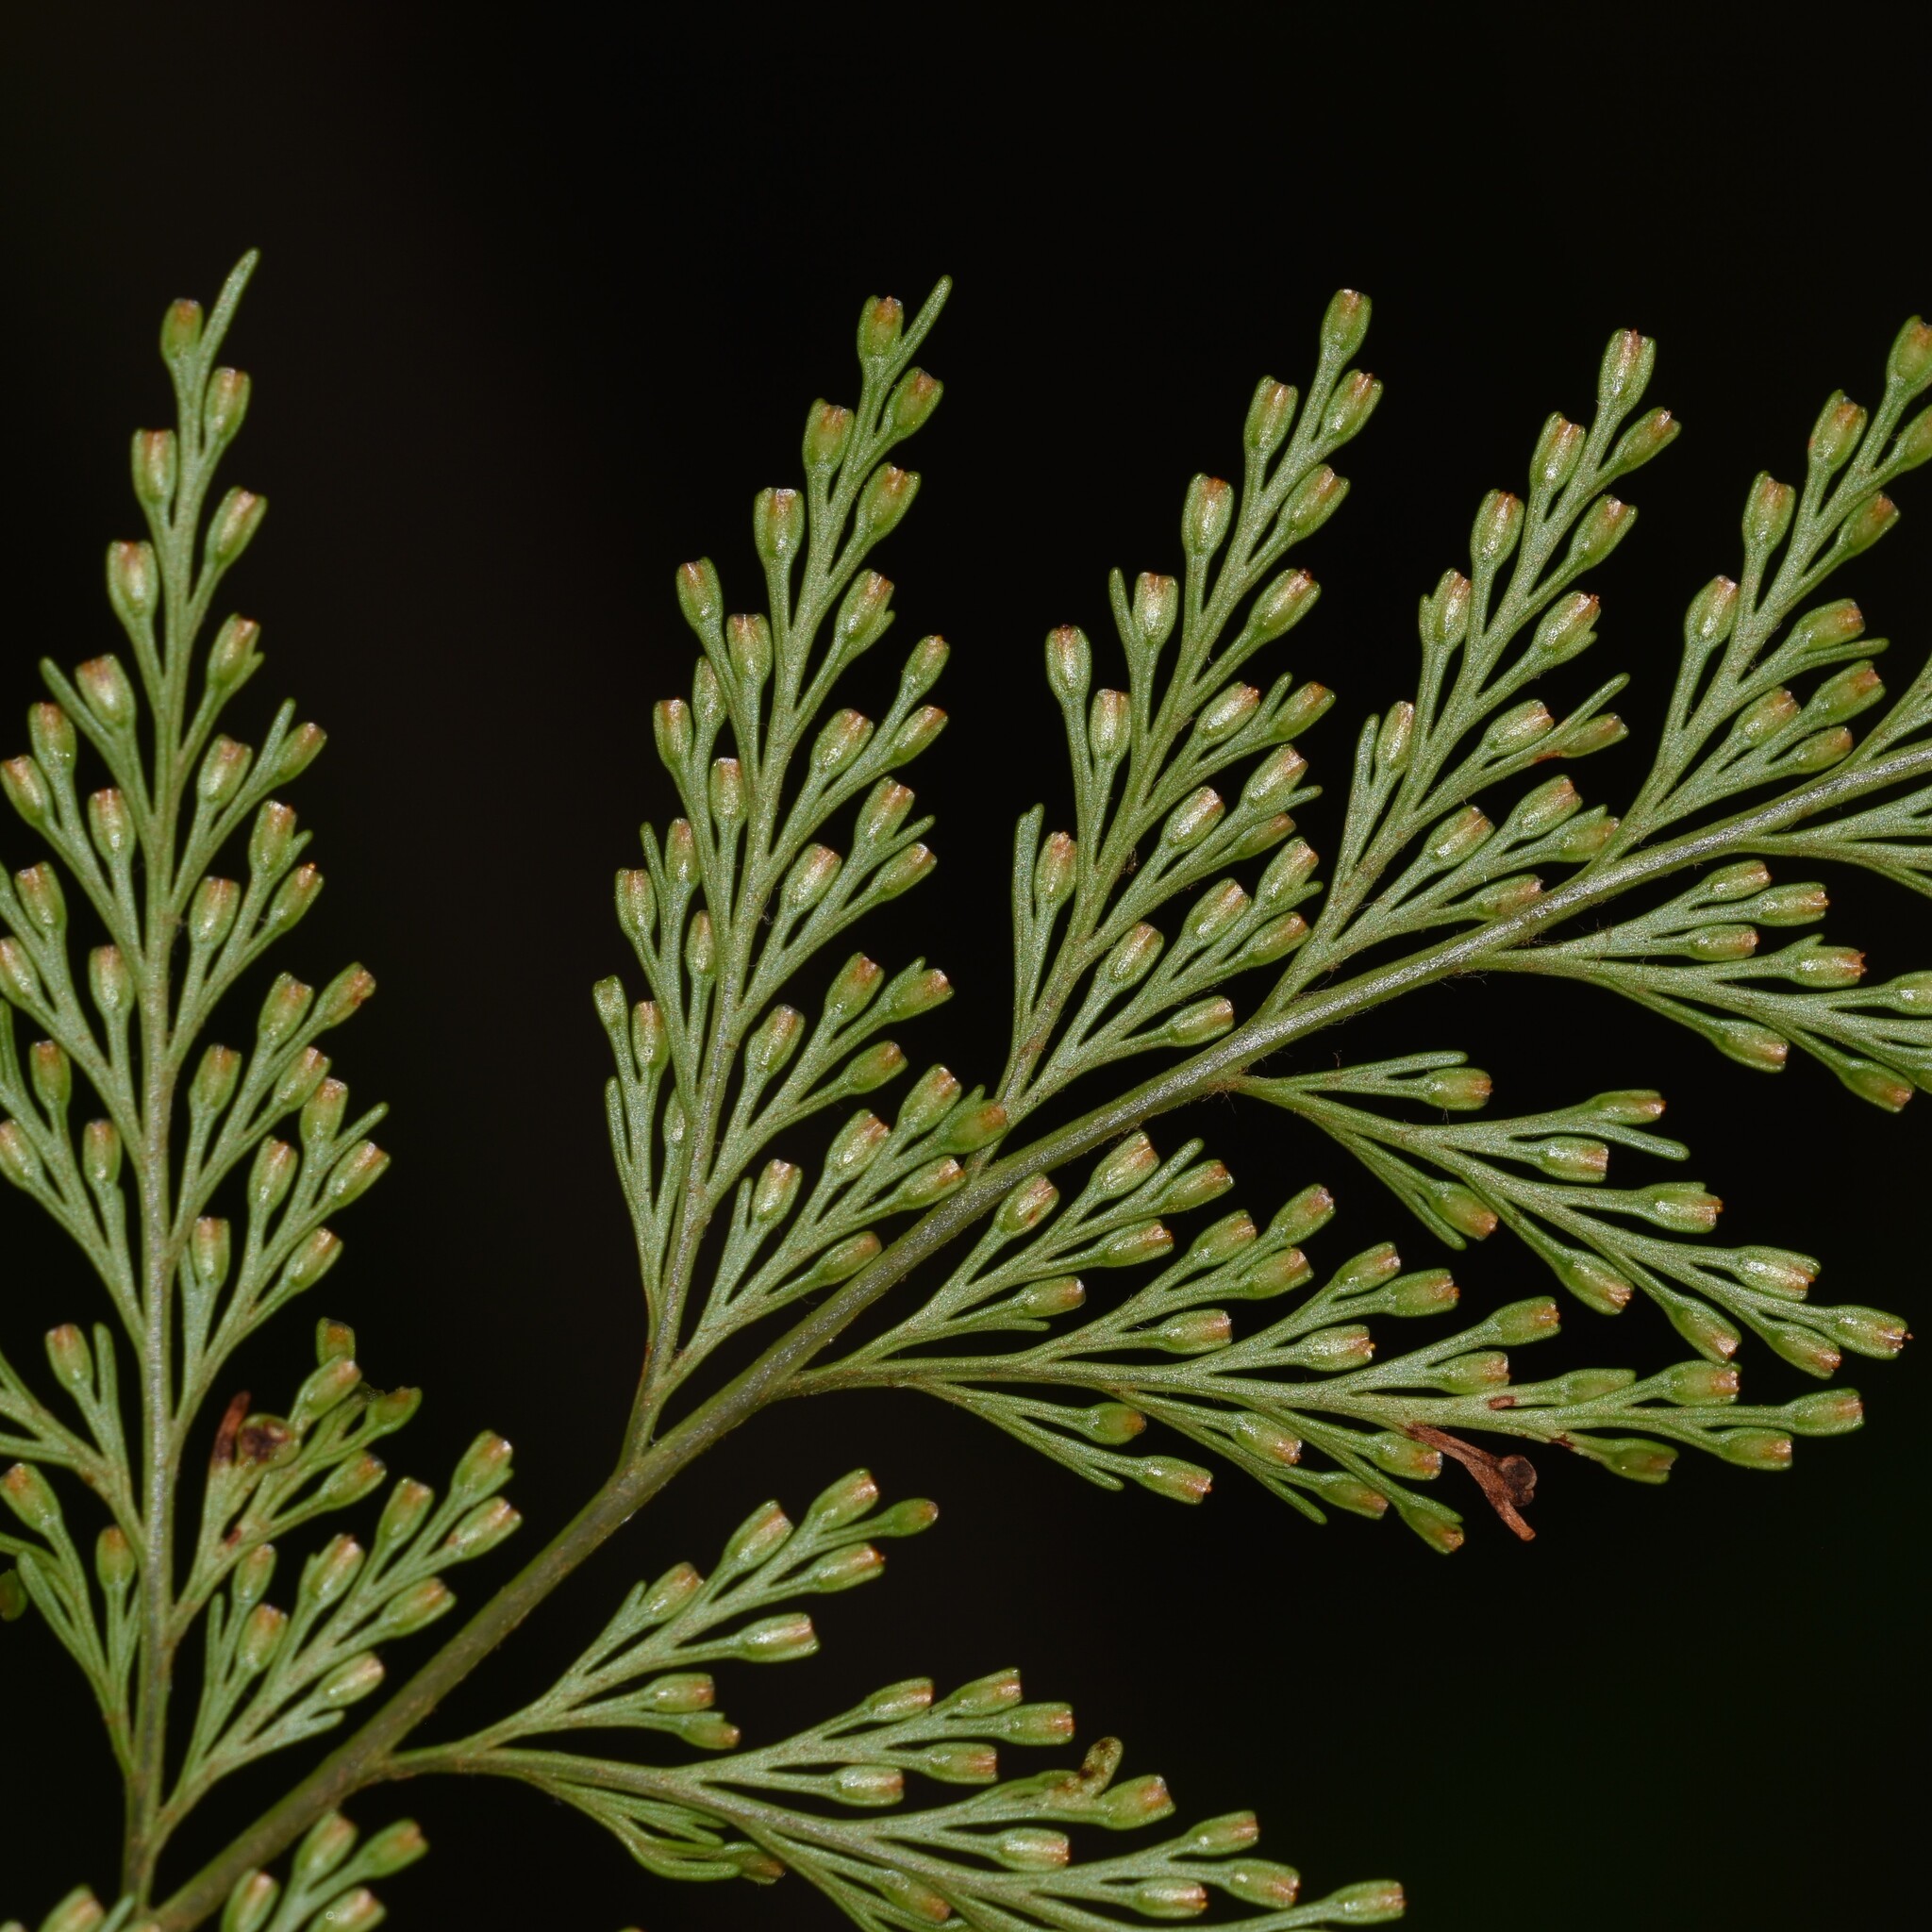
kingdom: Plantae
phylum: Tracheophyta
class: Polypodiopsida
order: Polypodiales
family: Davalliaceae
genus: Davallia
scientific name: Davallia fejeensis
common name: Lacy hare's-foot fern
